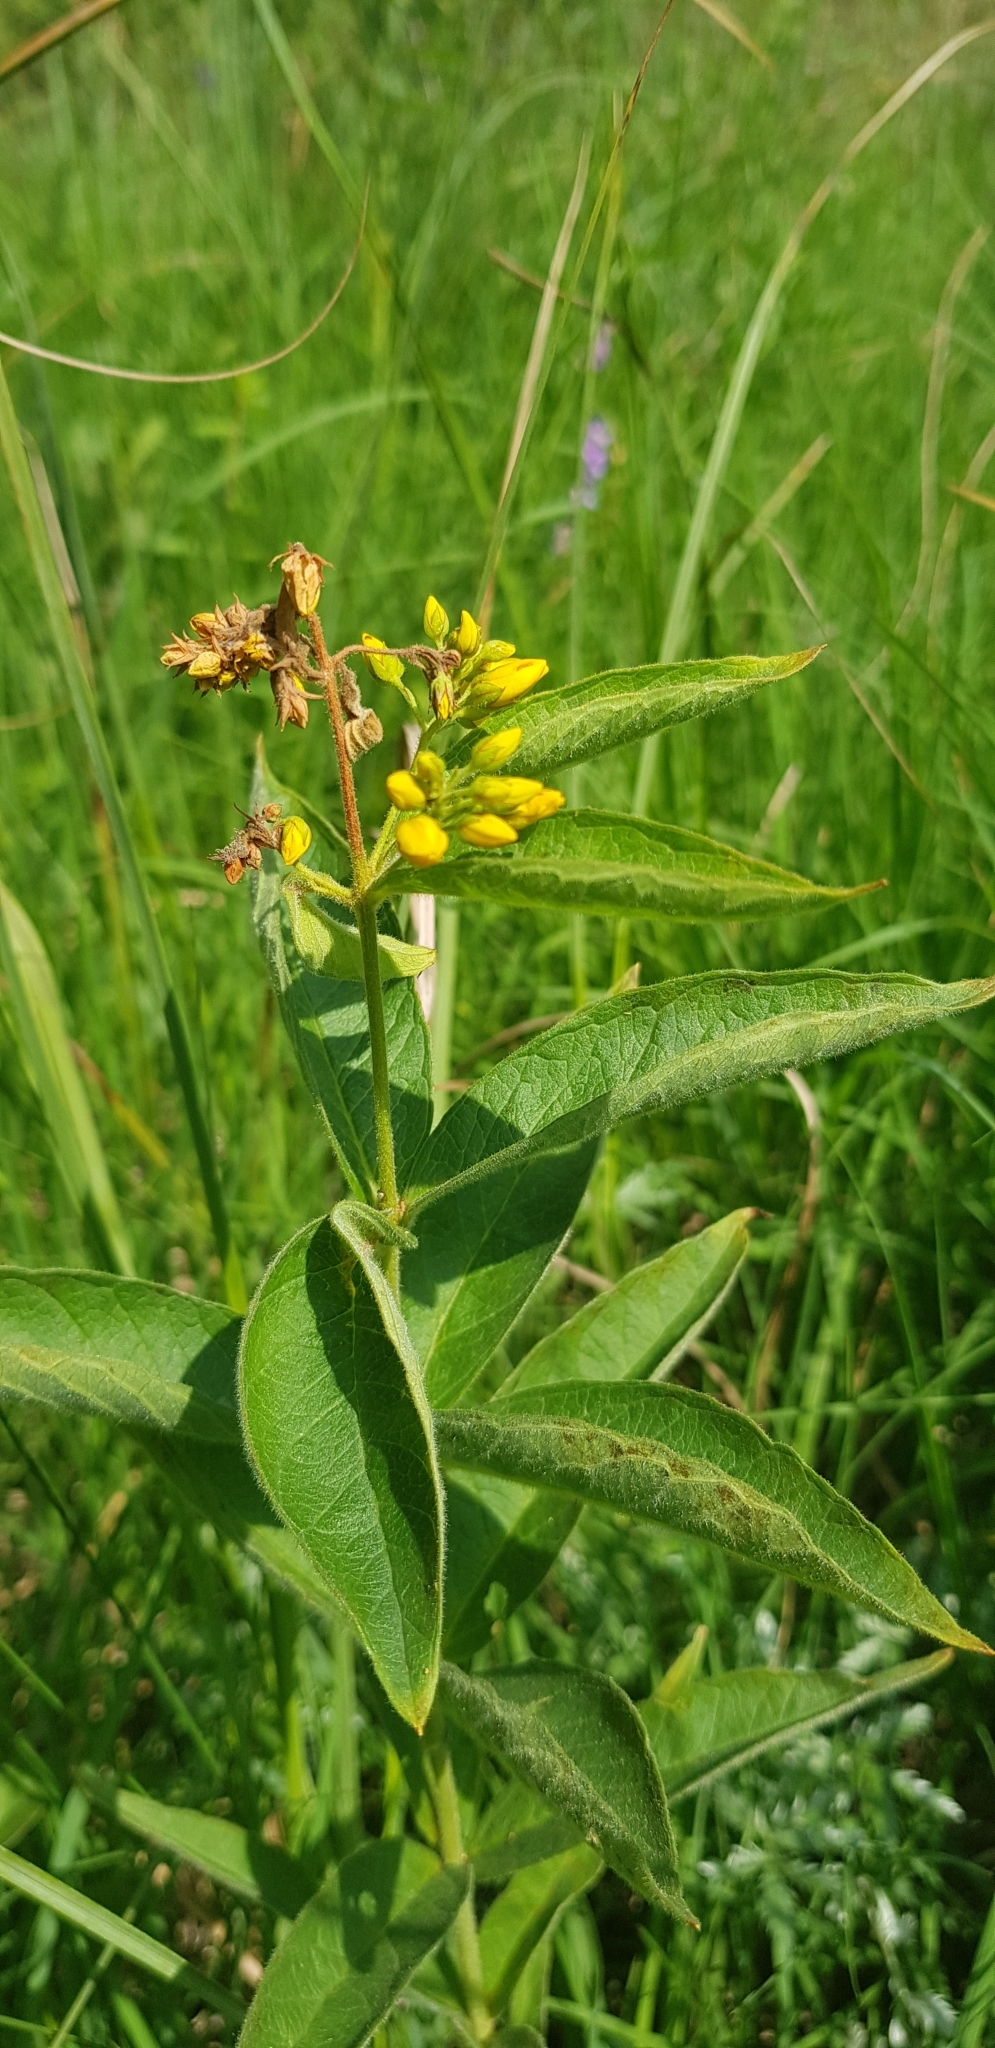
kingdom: Plantae
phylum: Tracheophyta
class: Magnoliopsida
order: Ericales
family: Primulaceae
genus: Lysimachia
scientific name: Lysimachia vulgaris
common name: Yellow loosestrife
